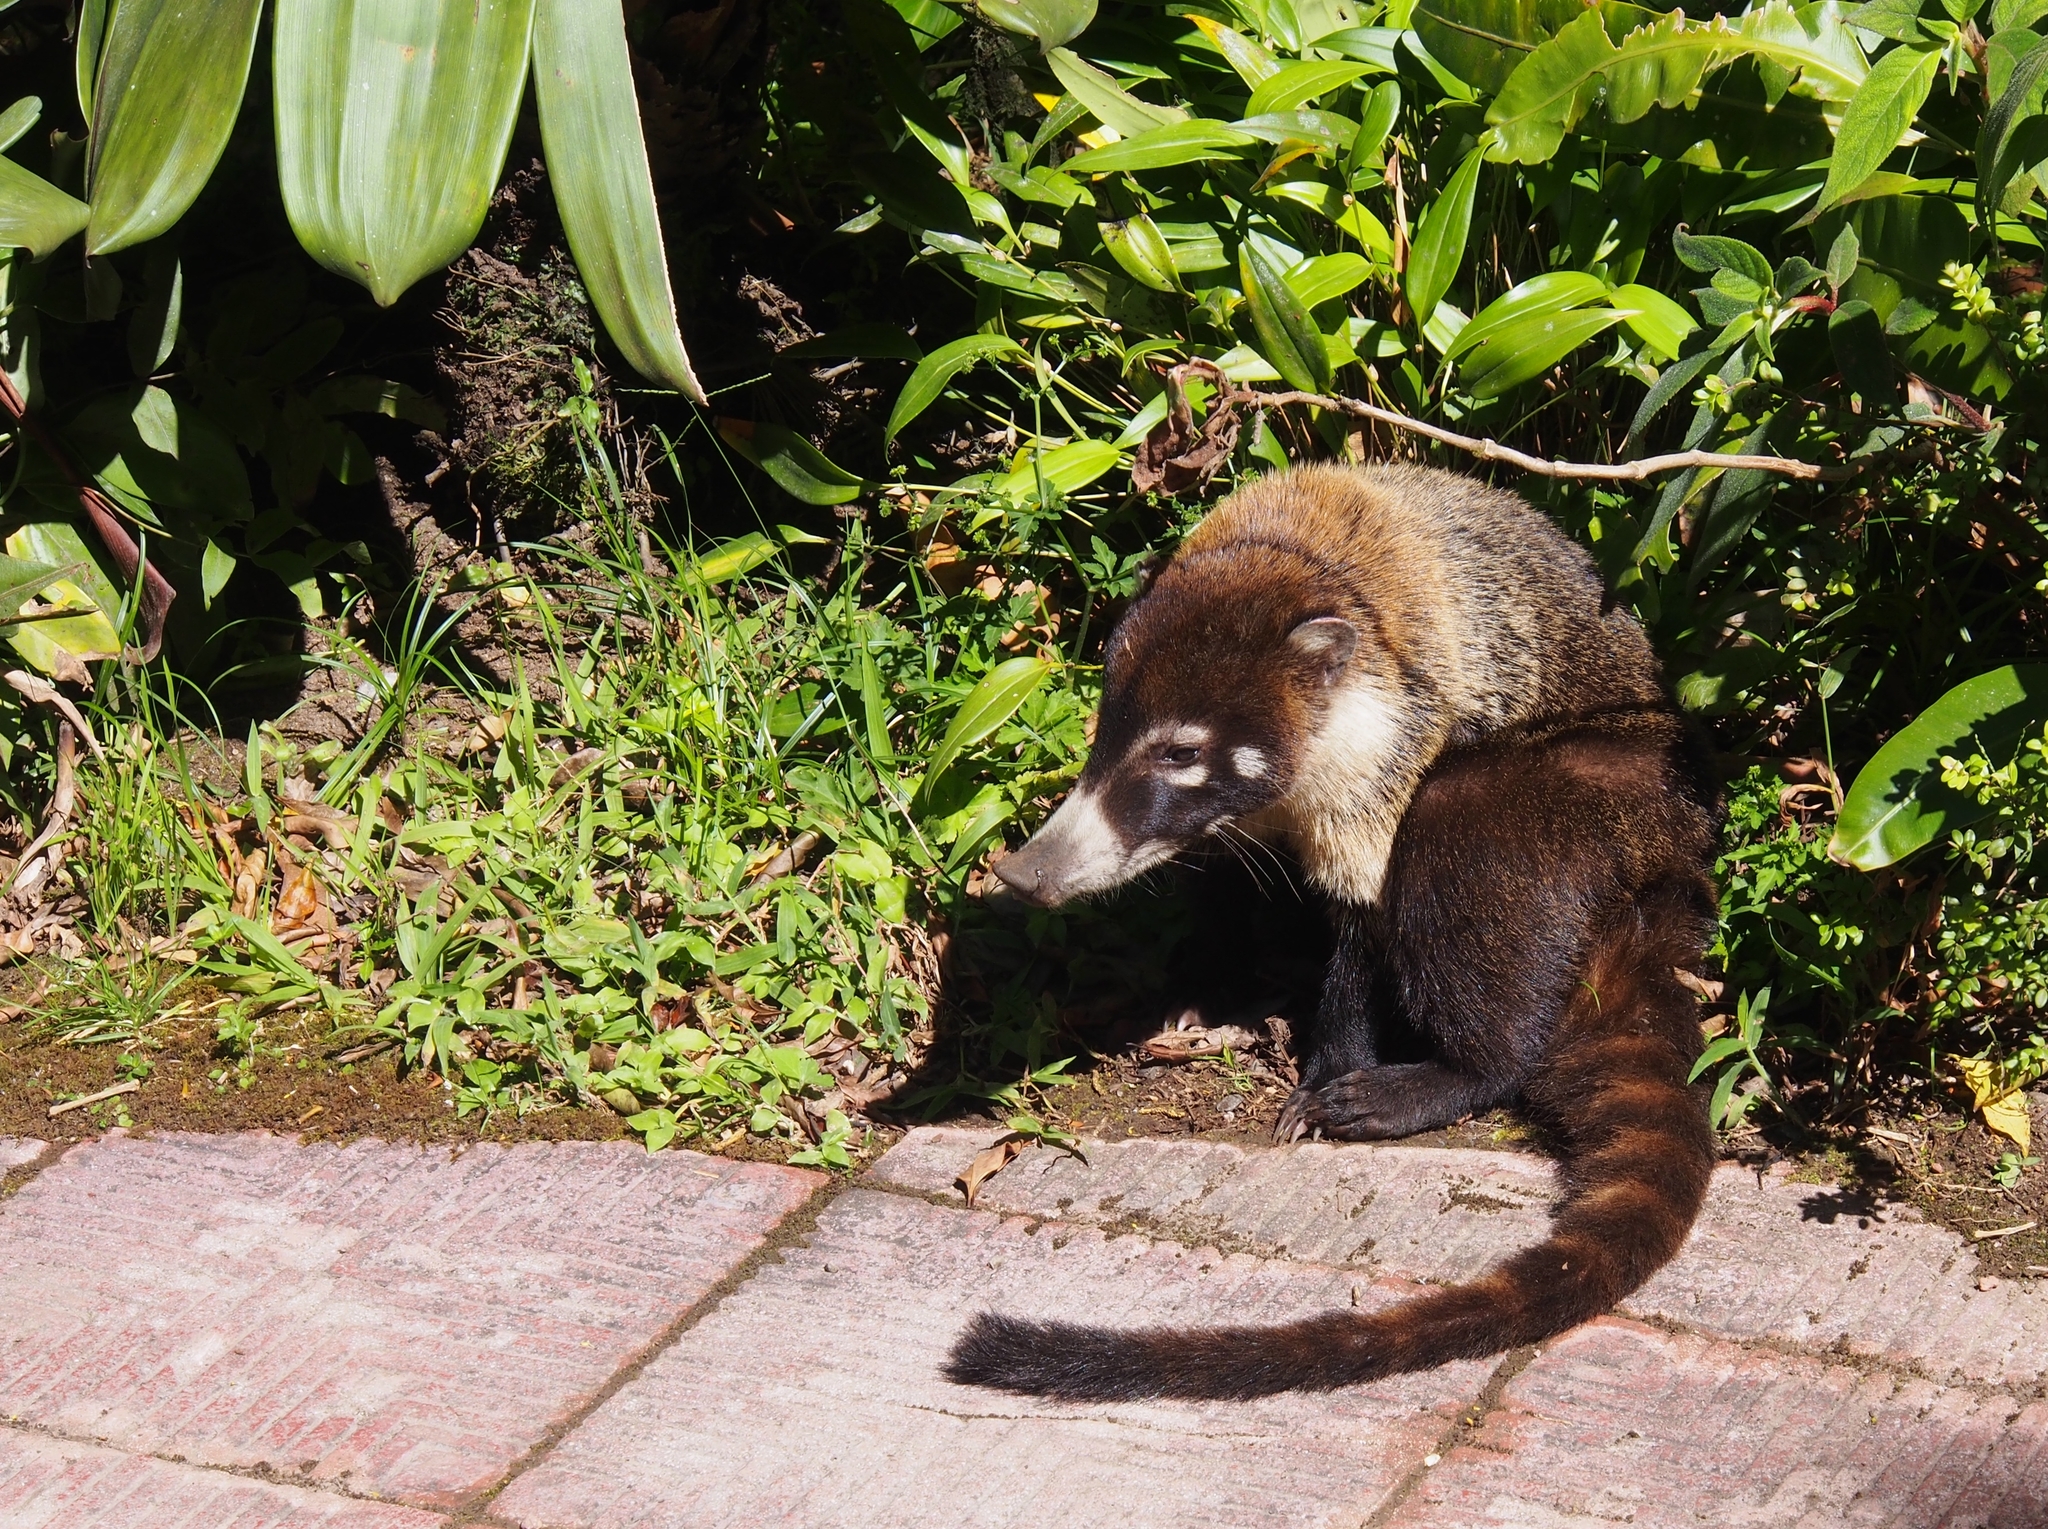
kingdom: Animalia
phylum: Chordata
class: Mammalia
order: Carnivora
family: Procyonidae
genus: Nasua
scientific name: Nasua narica
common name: White-nosed coati
